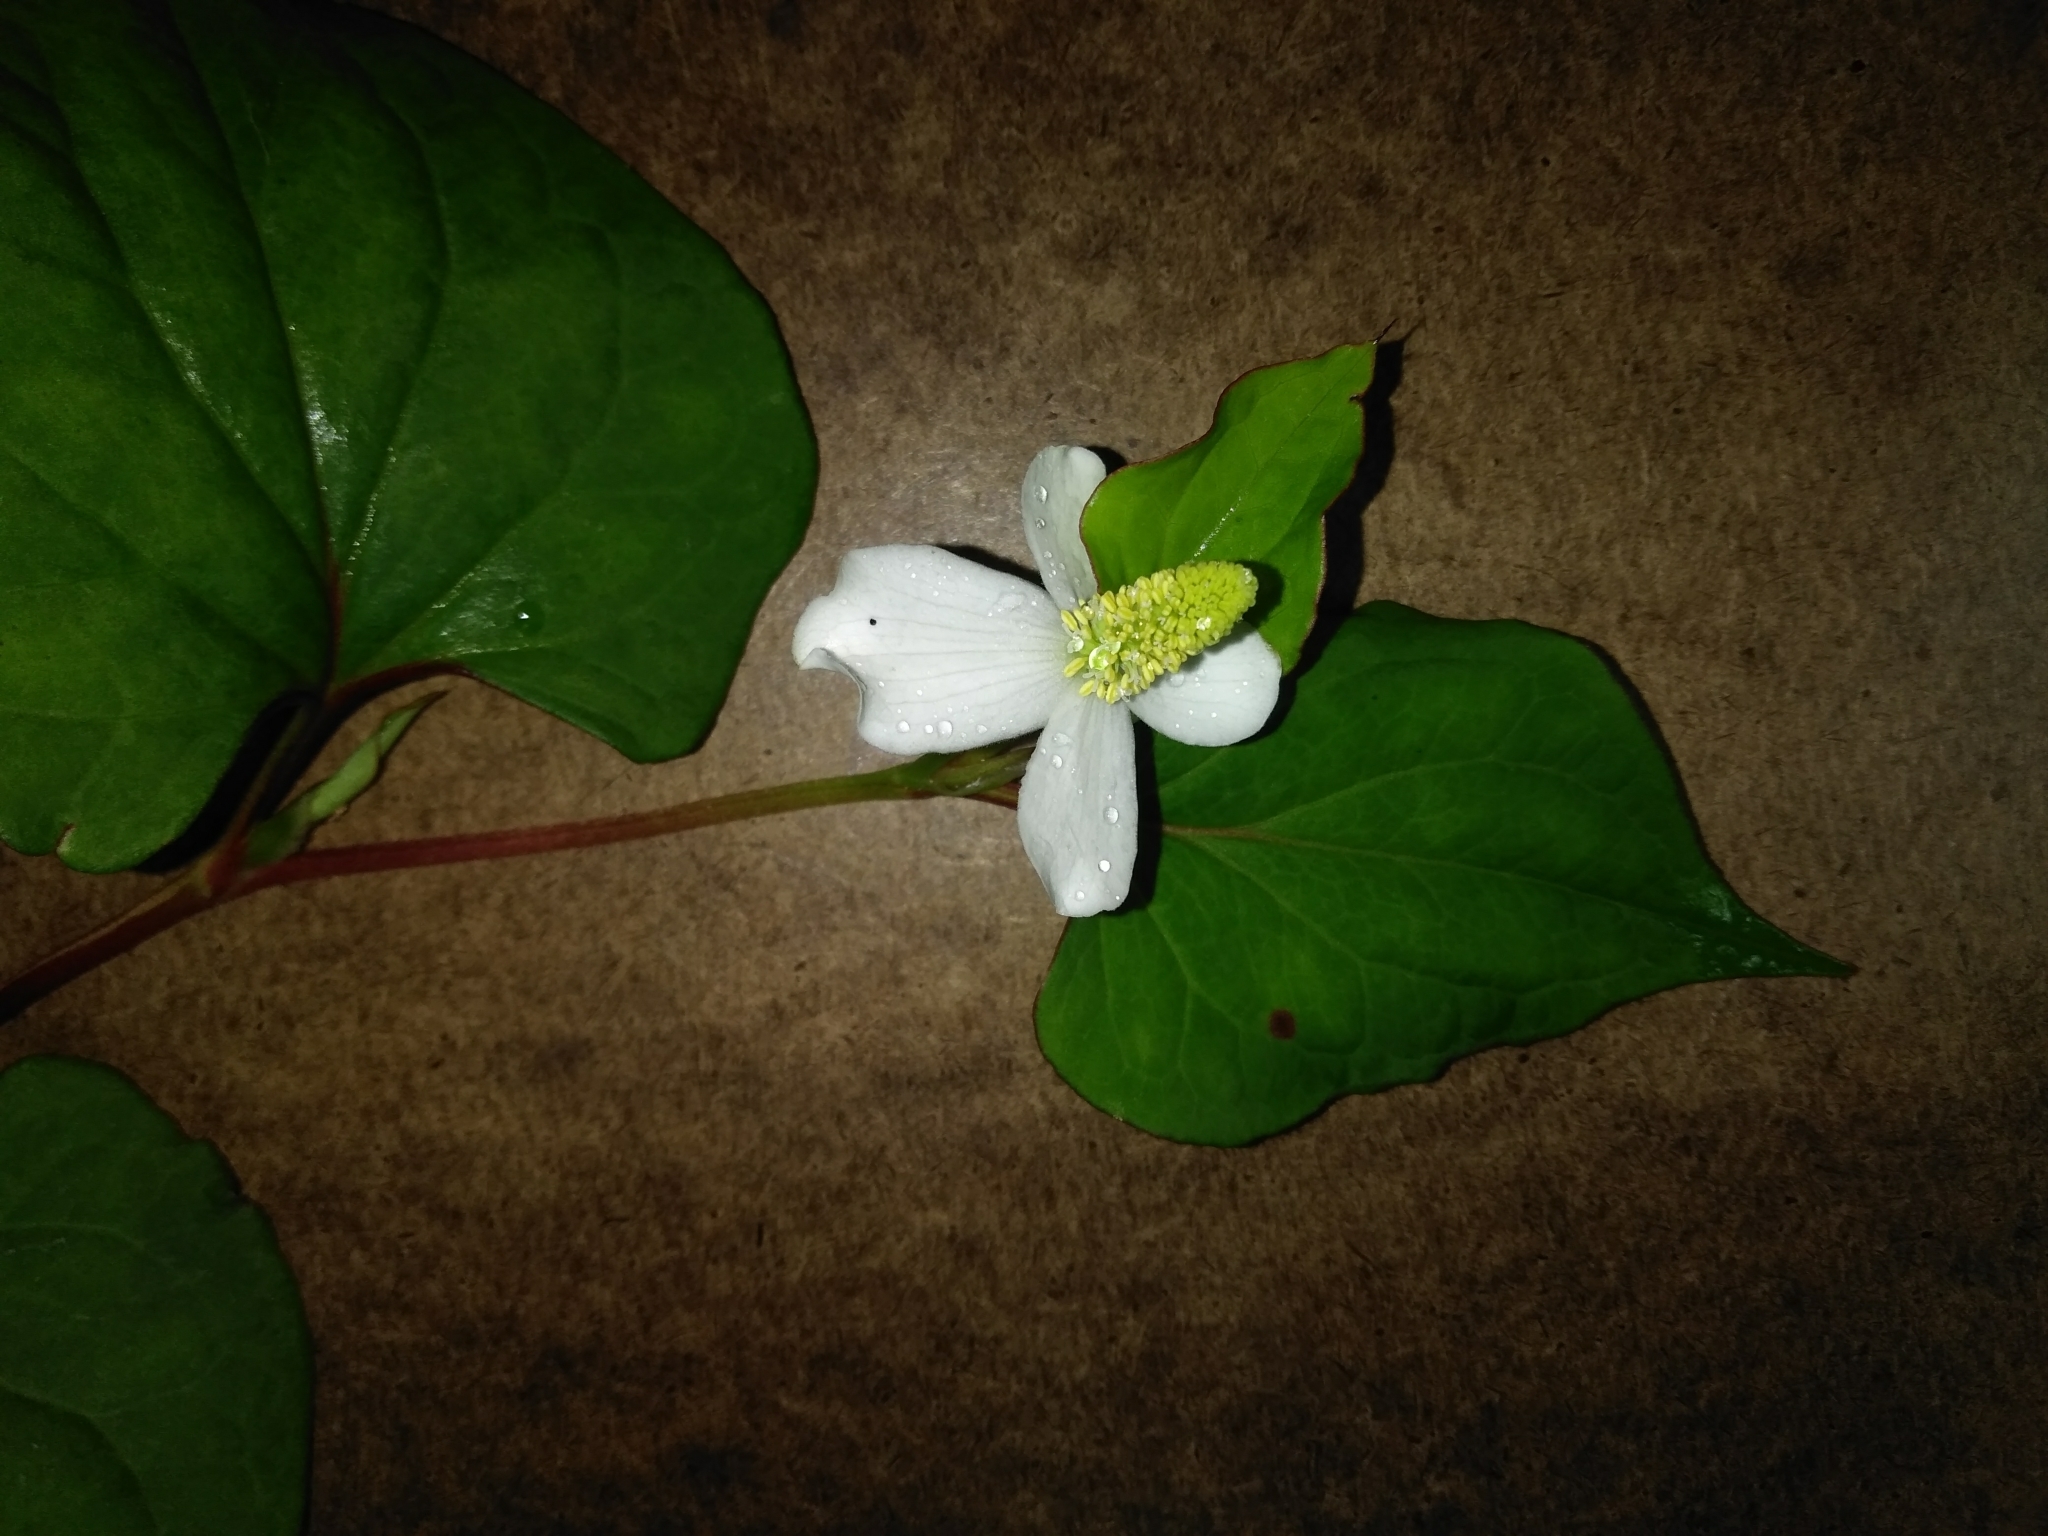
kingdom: Plantae
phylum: Tracheophyta
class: Magnoliopsida
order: Piperales
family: Saururaceae
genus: Houttuynia
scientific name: Houttuynia cordata
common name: Chameleon
